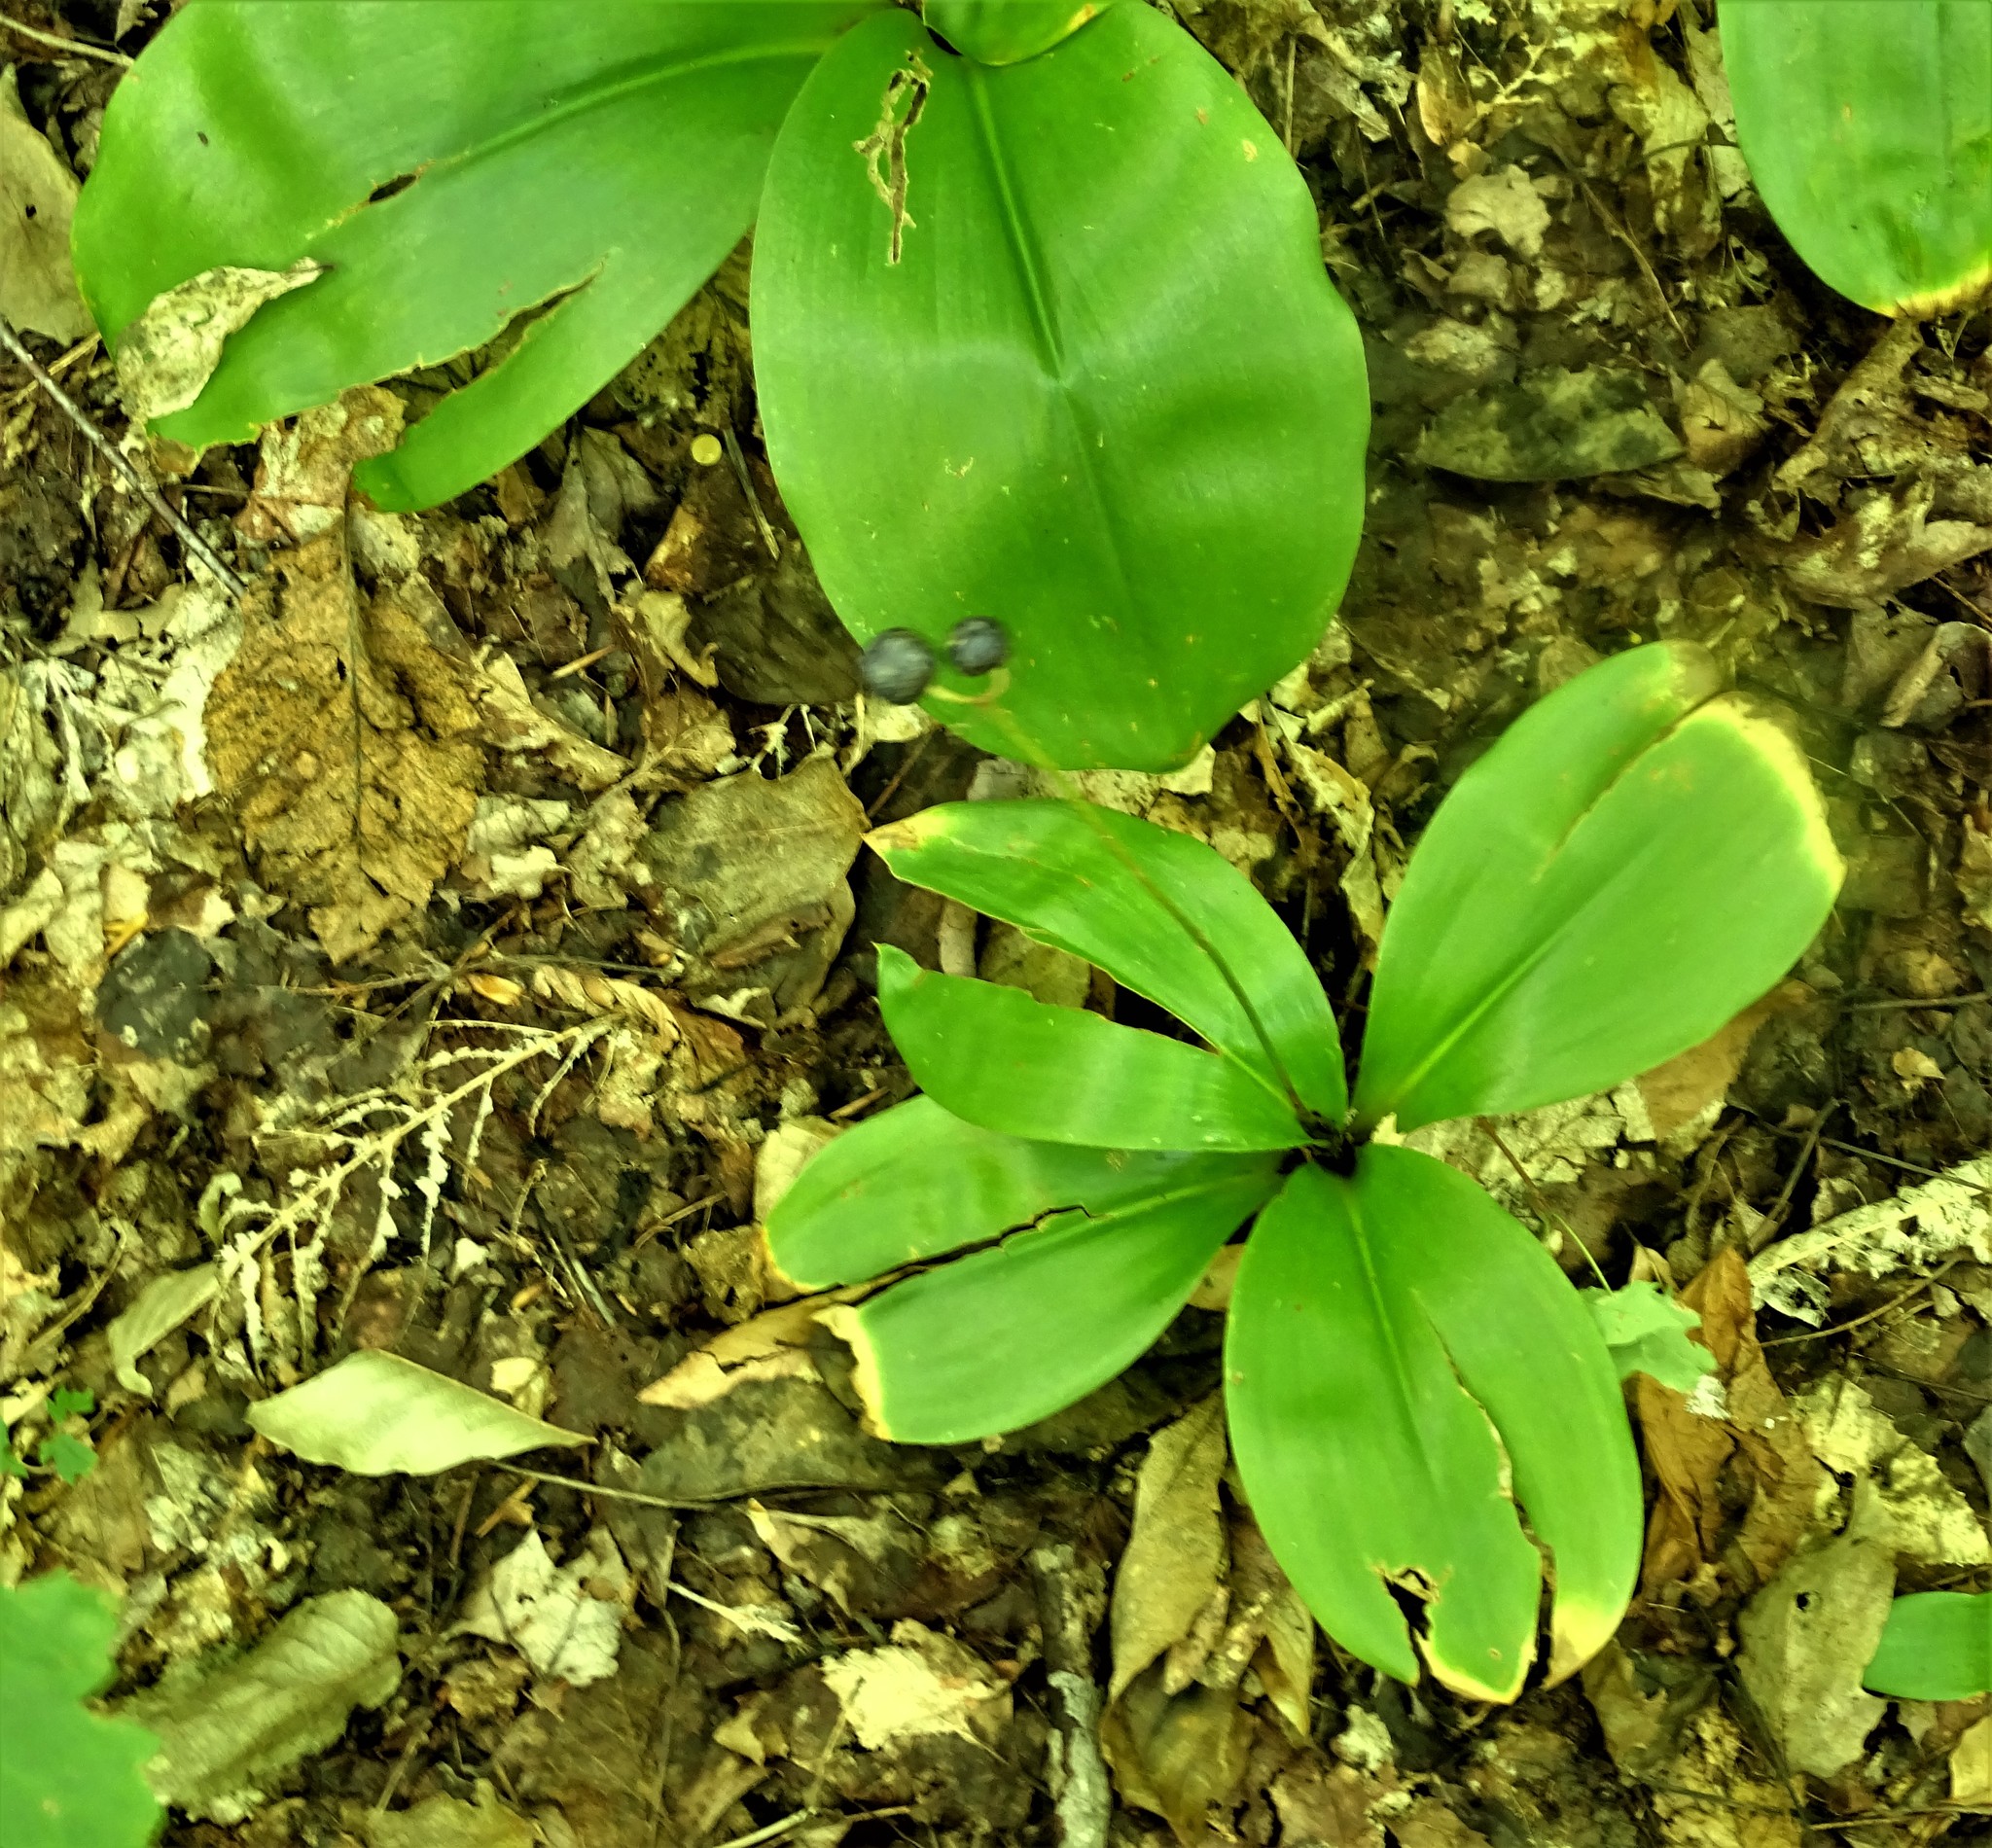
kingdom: Plantae
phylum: Tracheophyta
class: Liliopsida
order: Liliales
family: Liliaceae
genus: Clintonia
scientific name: Clintonia borealis
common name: Yellow clintonia
